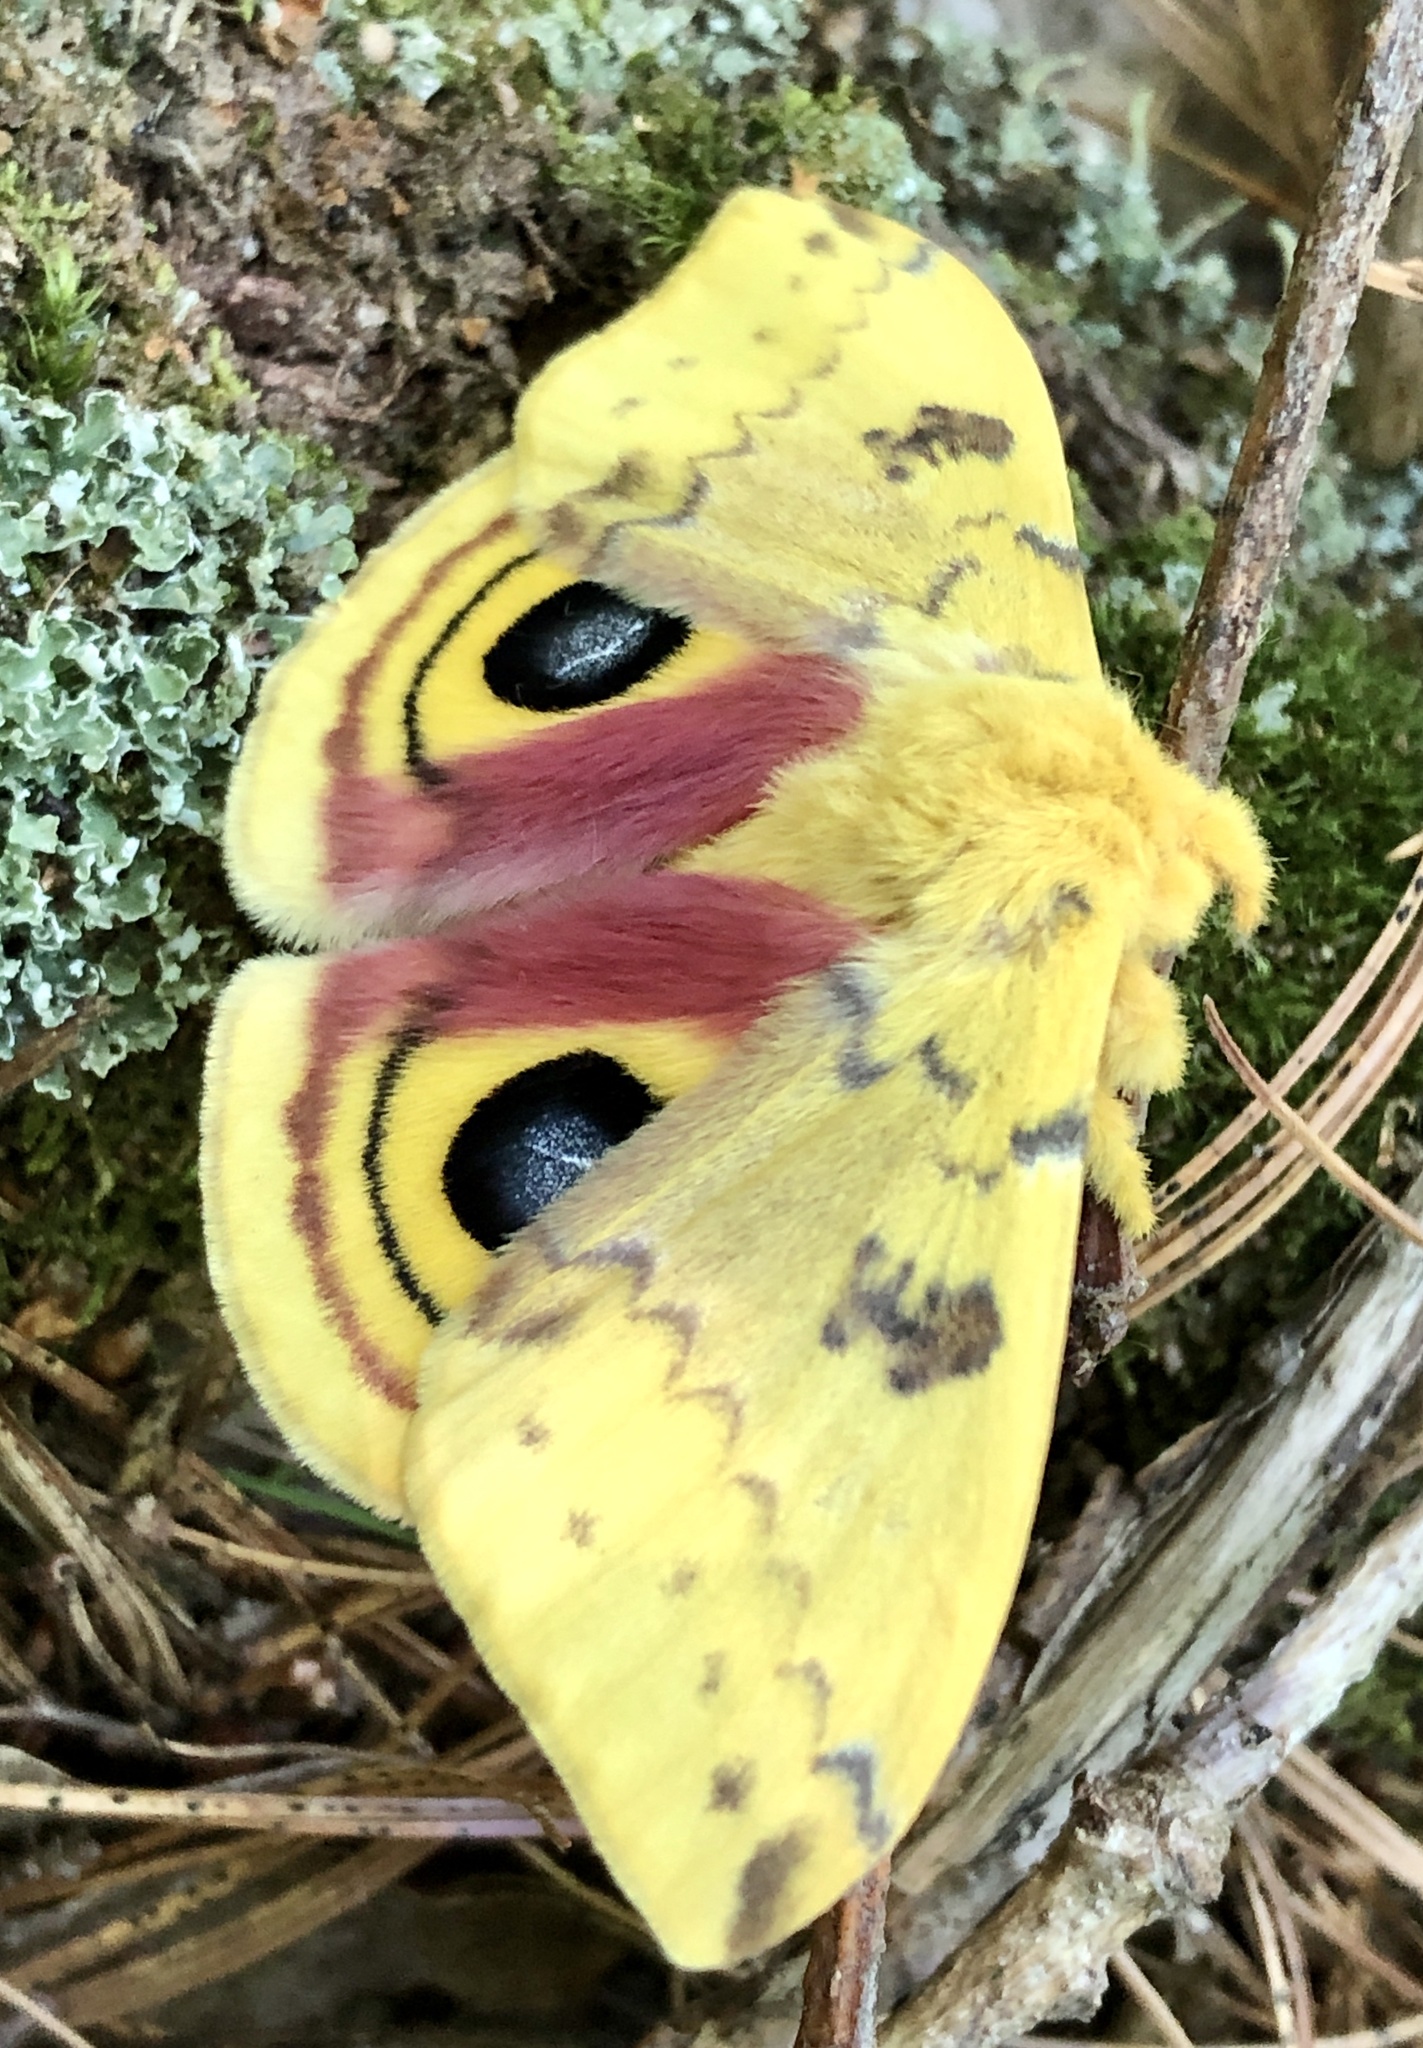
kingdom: Animalia
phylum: Arthropoda
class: Insecta
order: Lepidoptera
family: Saturniidae
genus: Automeris
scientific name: Automeris io
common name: Io moth
